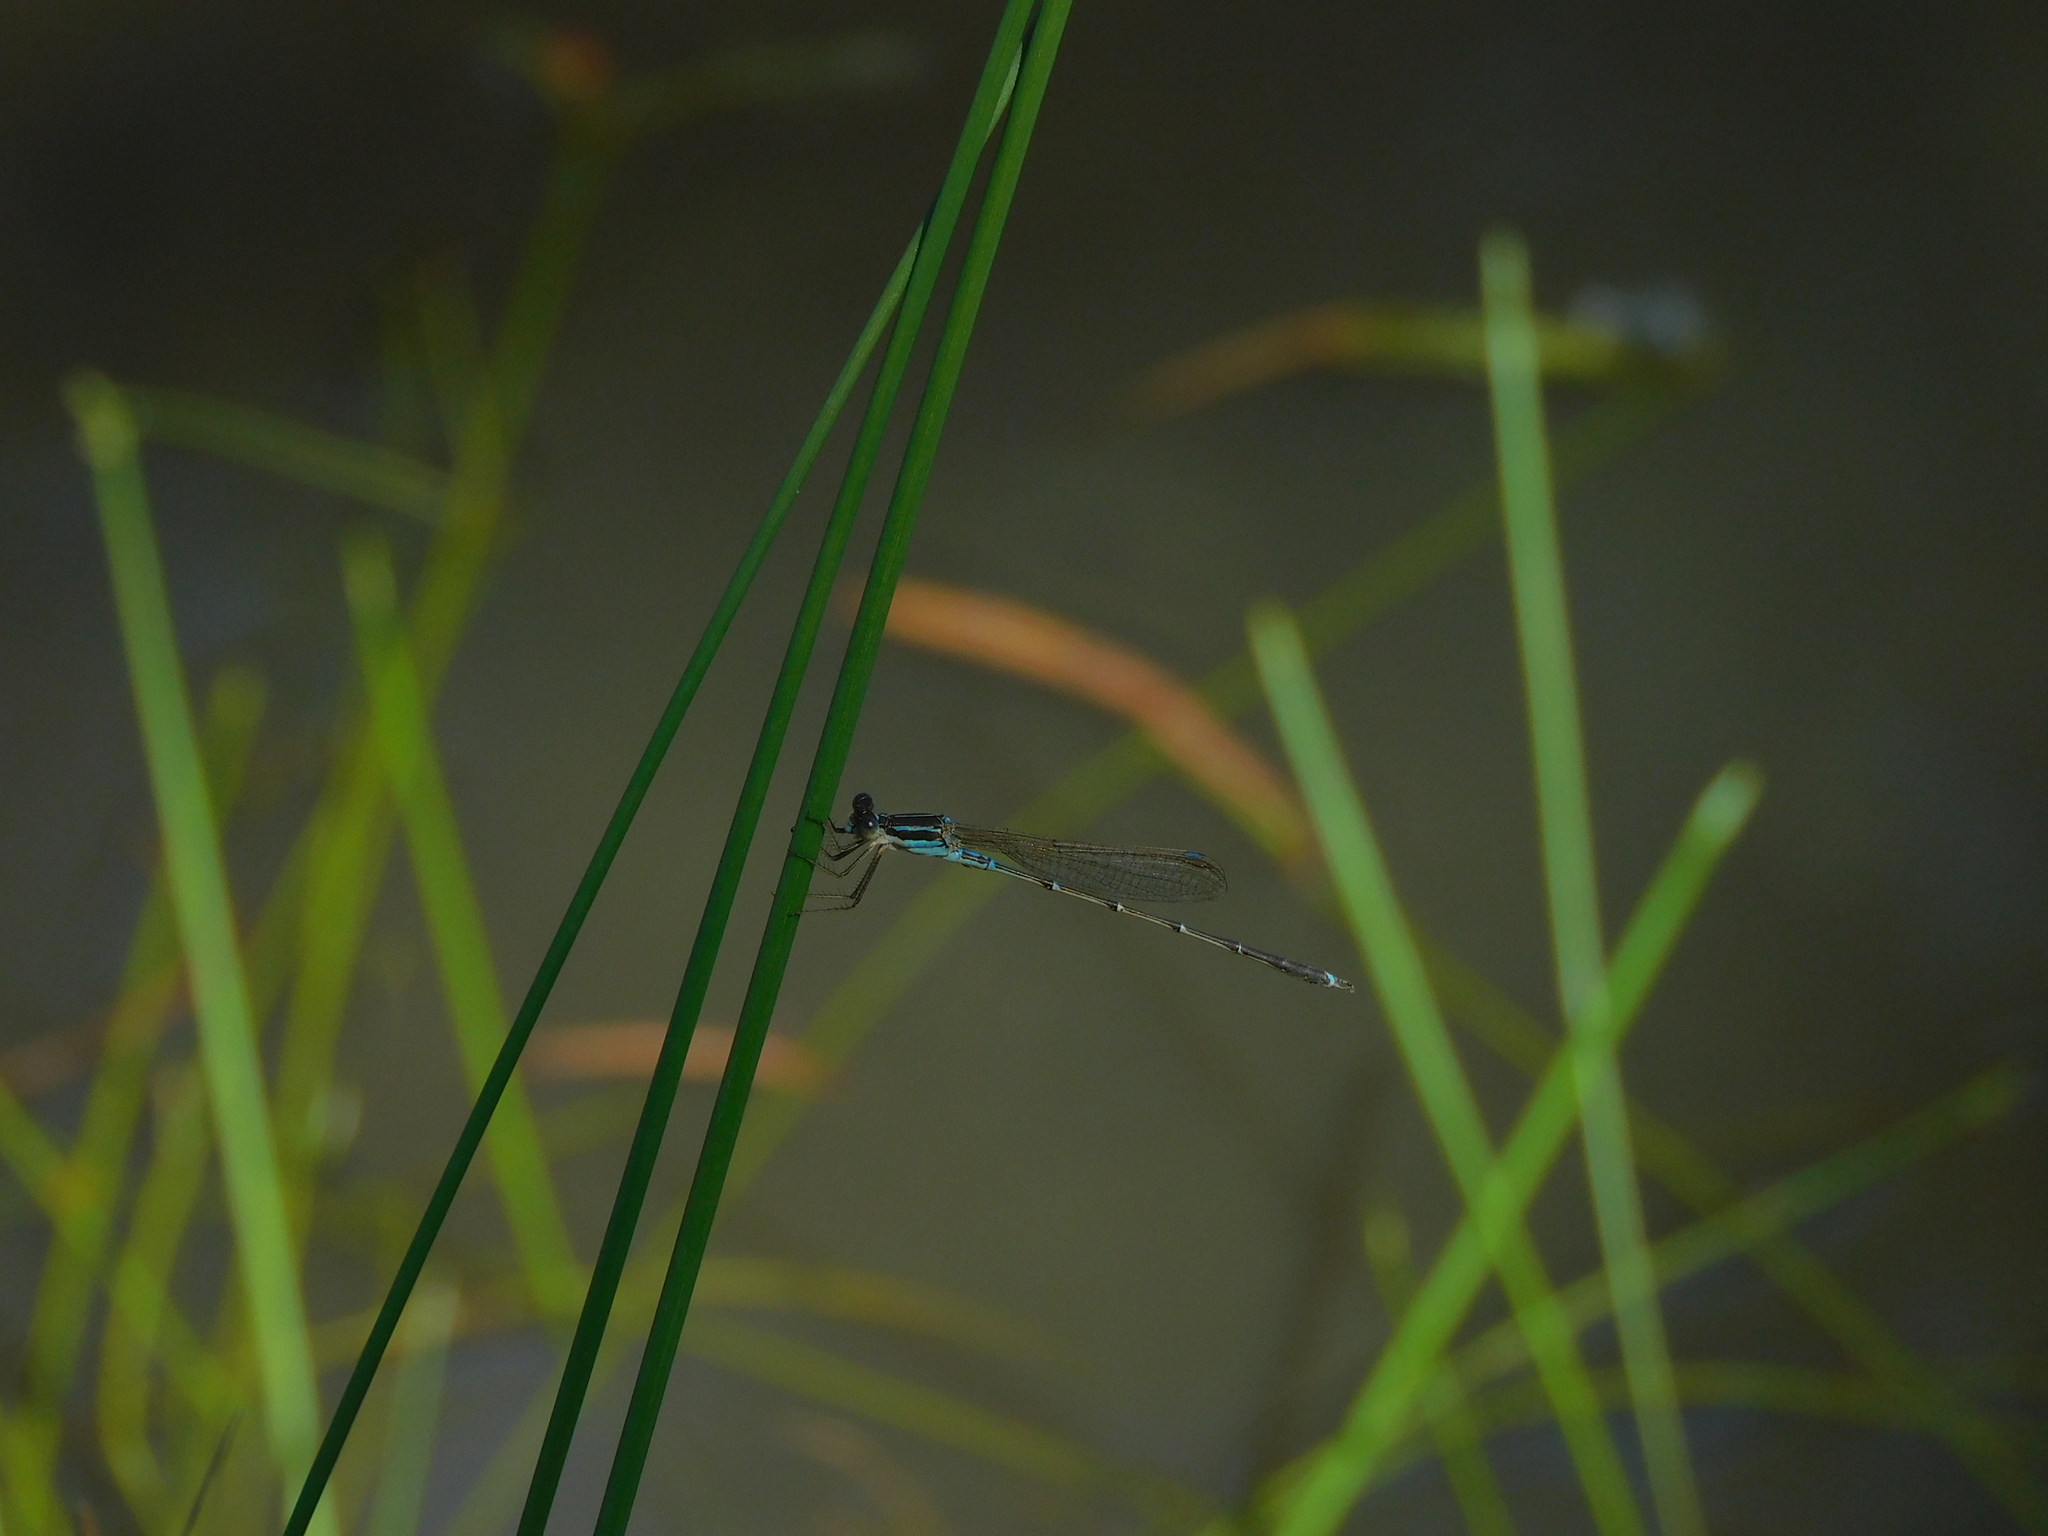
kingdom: Animalia
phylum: Arthropoda
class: Insecta
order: Odonata
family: Lestidae
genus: Austrolestes
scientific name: Austrolestes analis
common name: Slender ringtail
